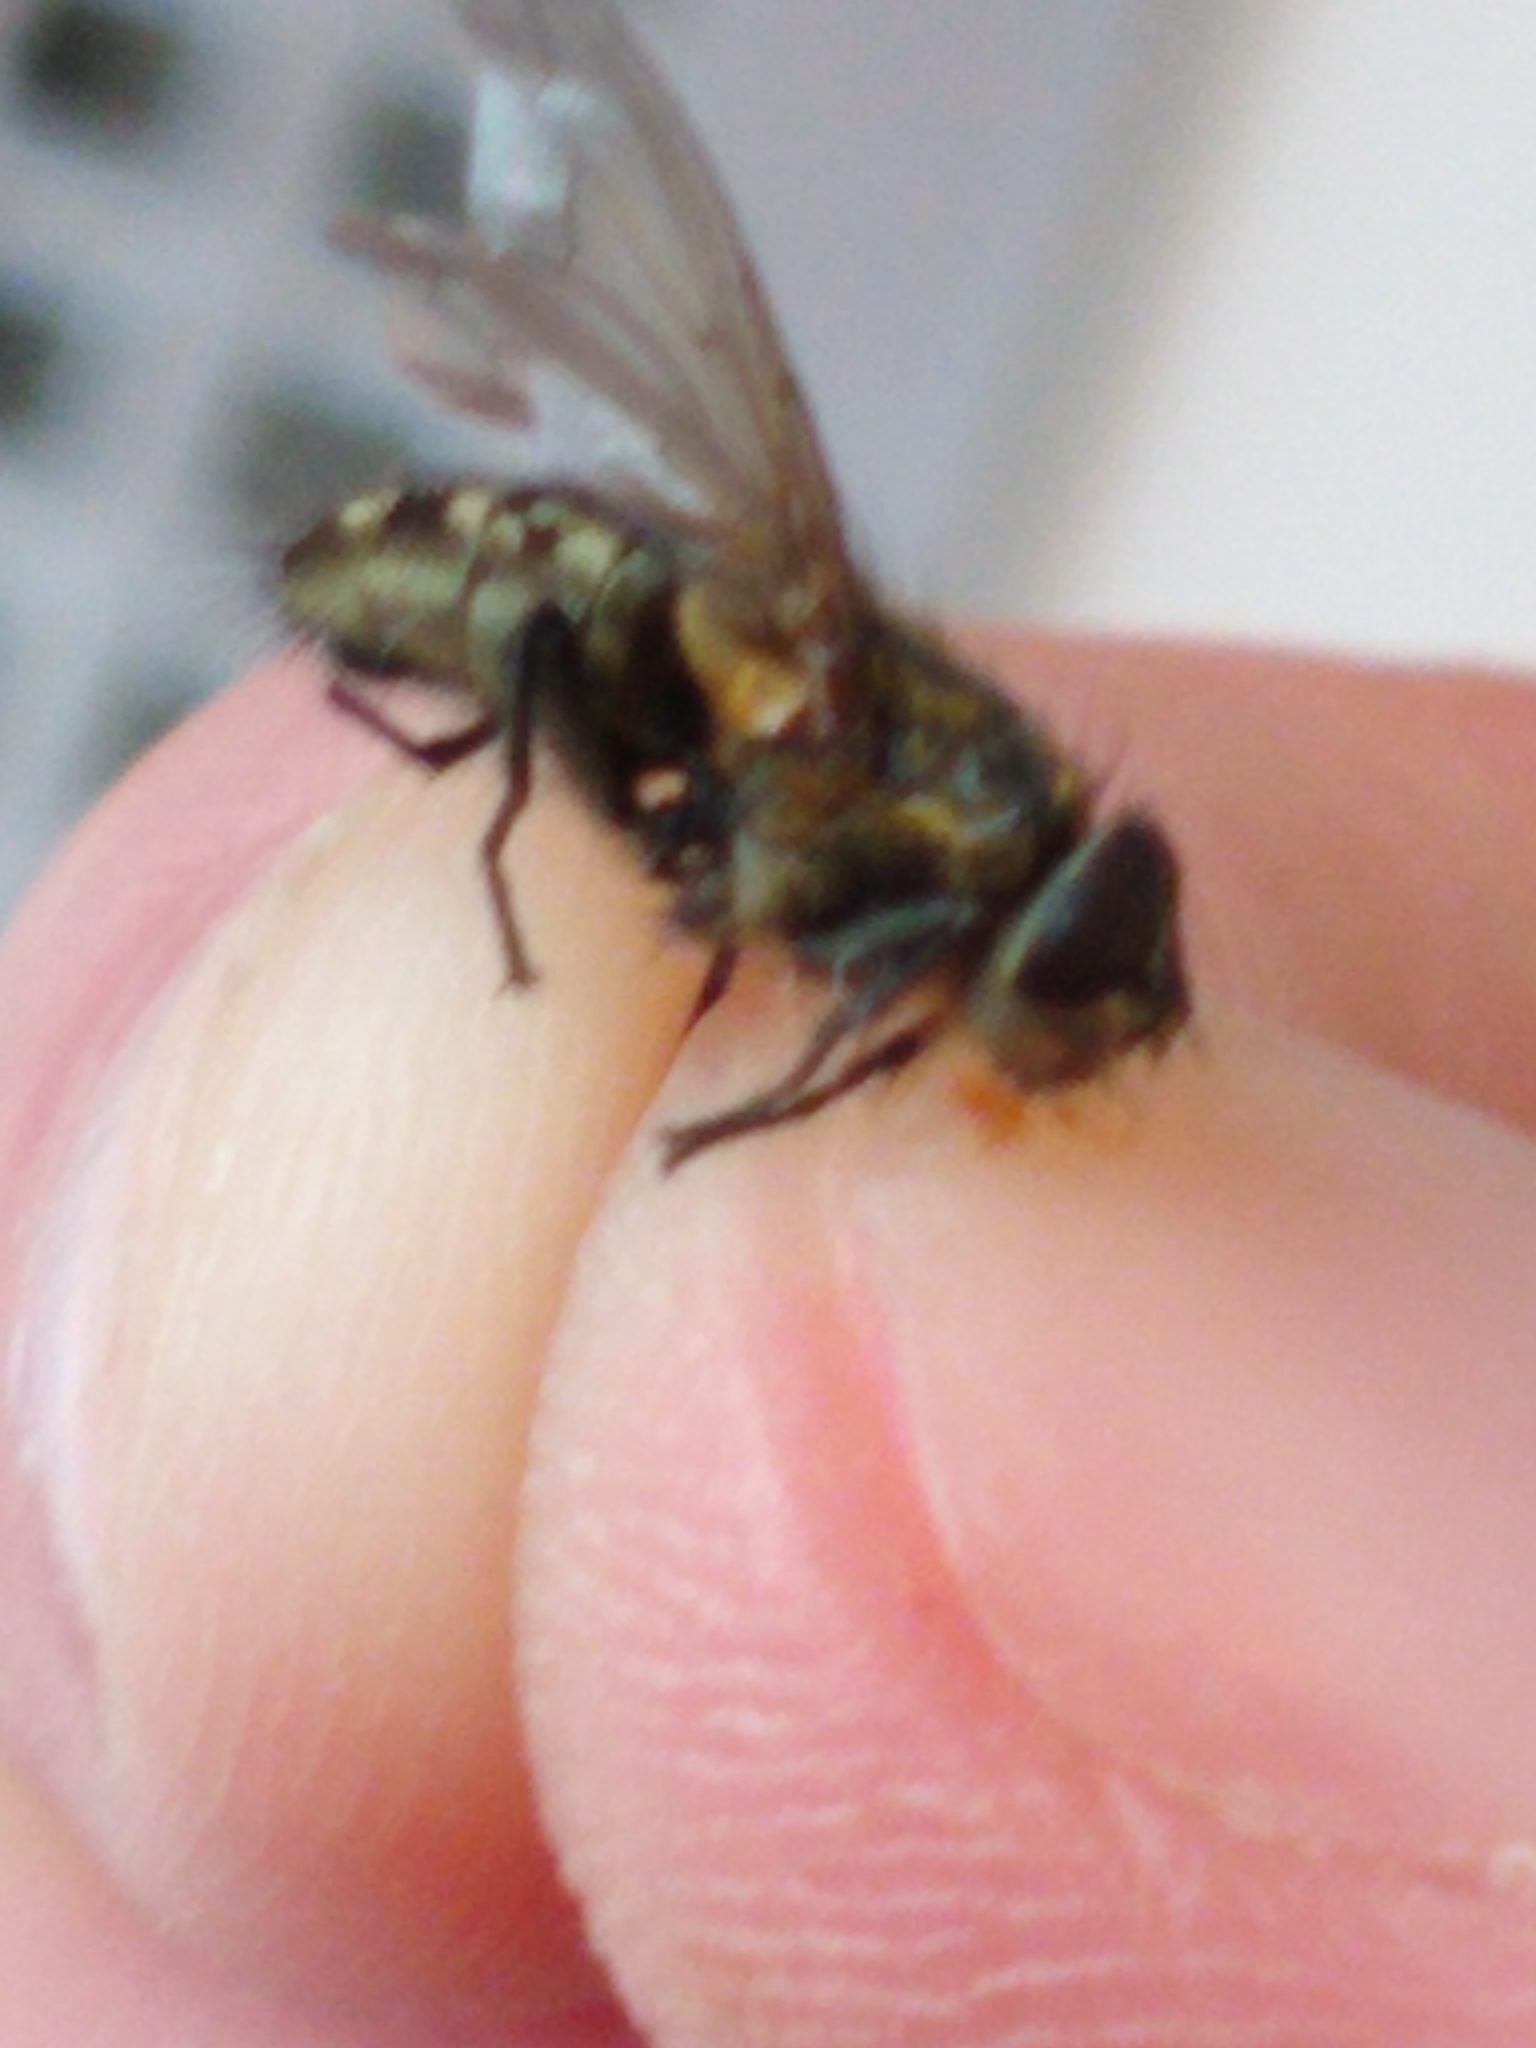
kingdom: Animalia
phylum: Arthropoda
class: Insecta
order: Diptera
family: Polleniidae
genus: Pollenia
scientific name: Pollenia
